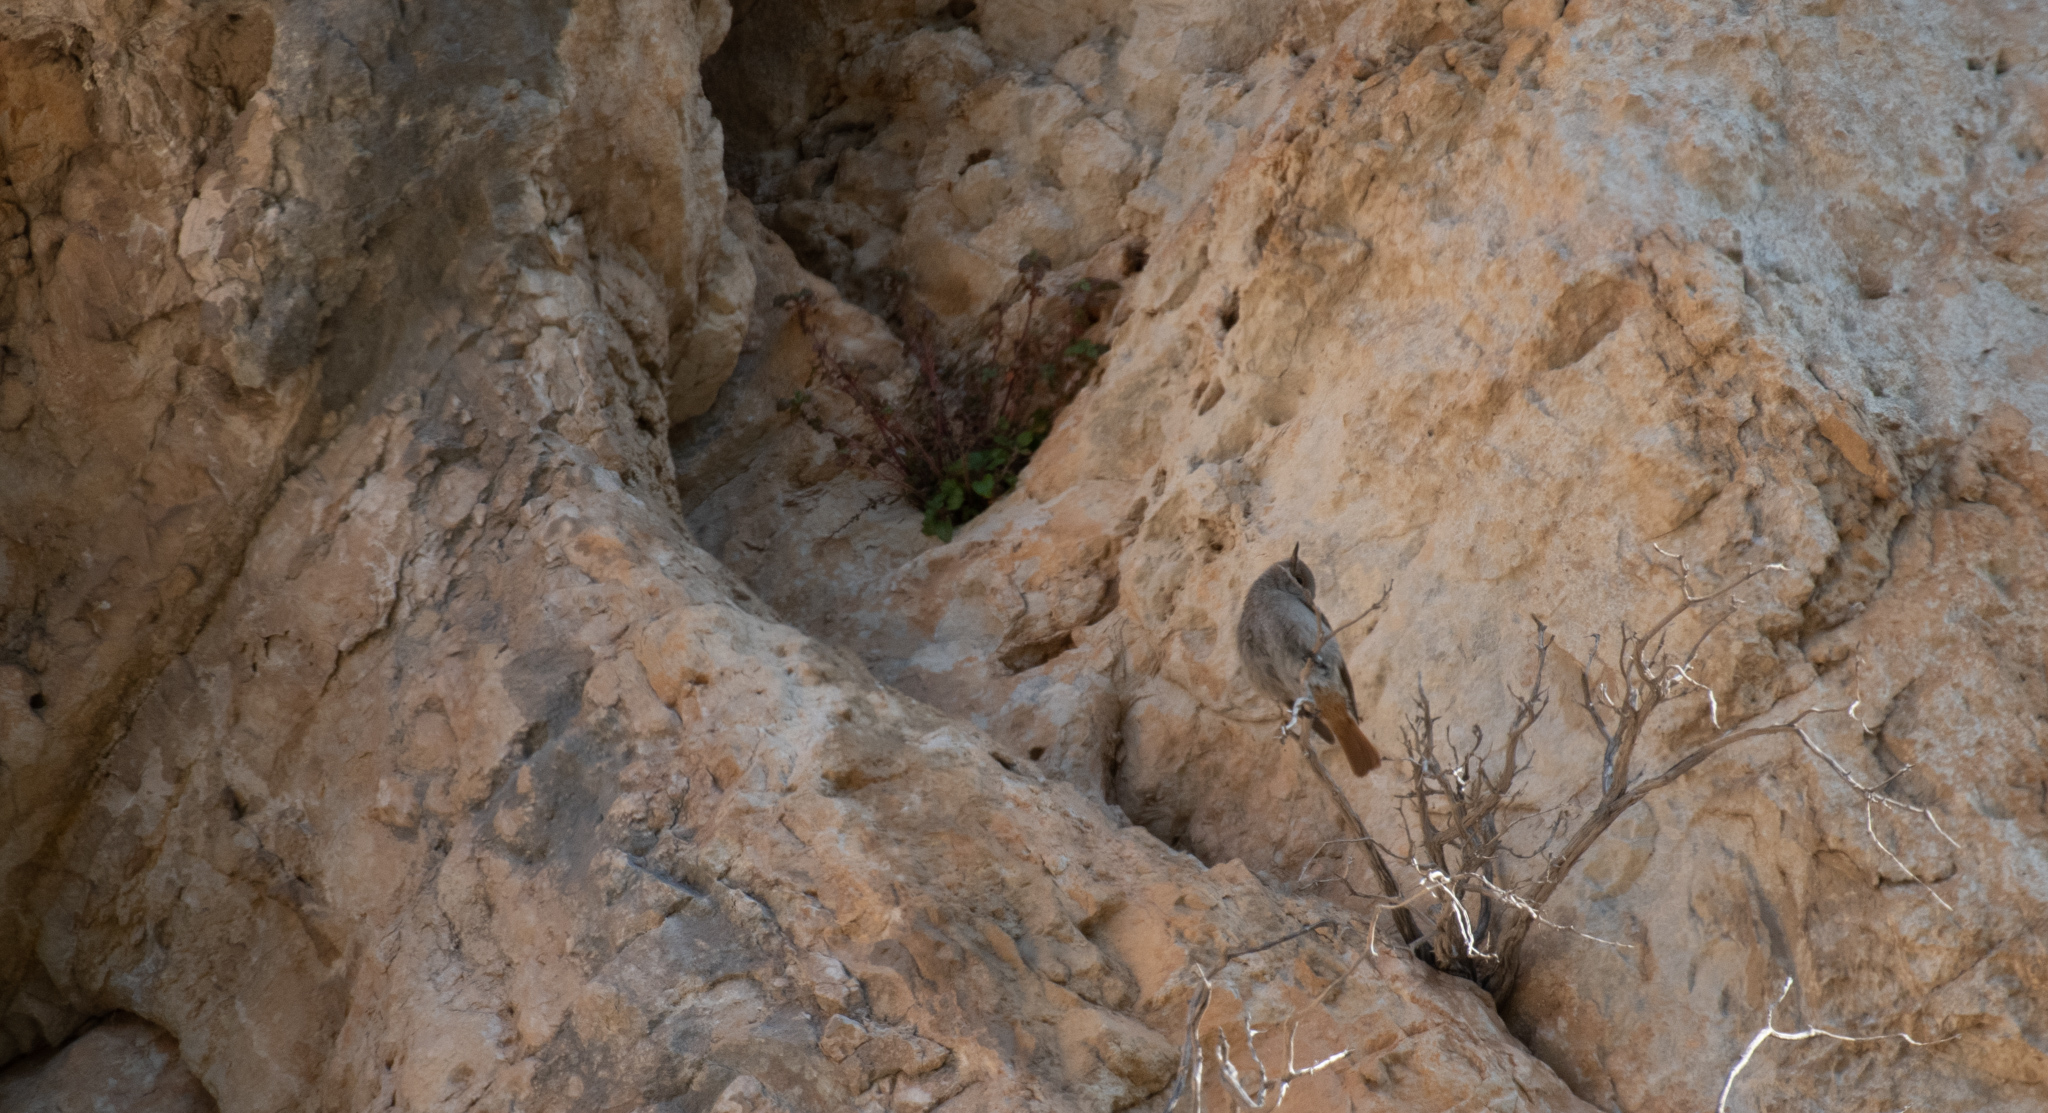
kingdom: Animalia
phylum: Chordata
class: Aves
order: Passeriformes
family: Muscicapidae
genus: Phoenicurus
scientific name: Phoenicurus ochruros
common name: Black redstart
